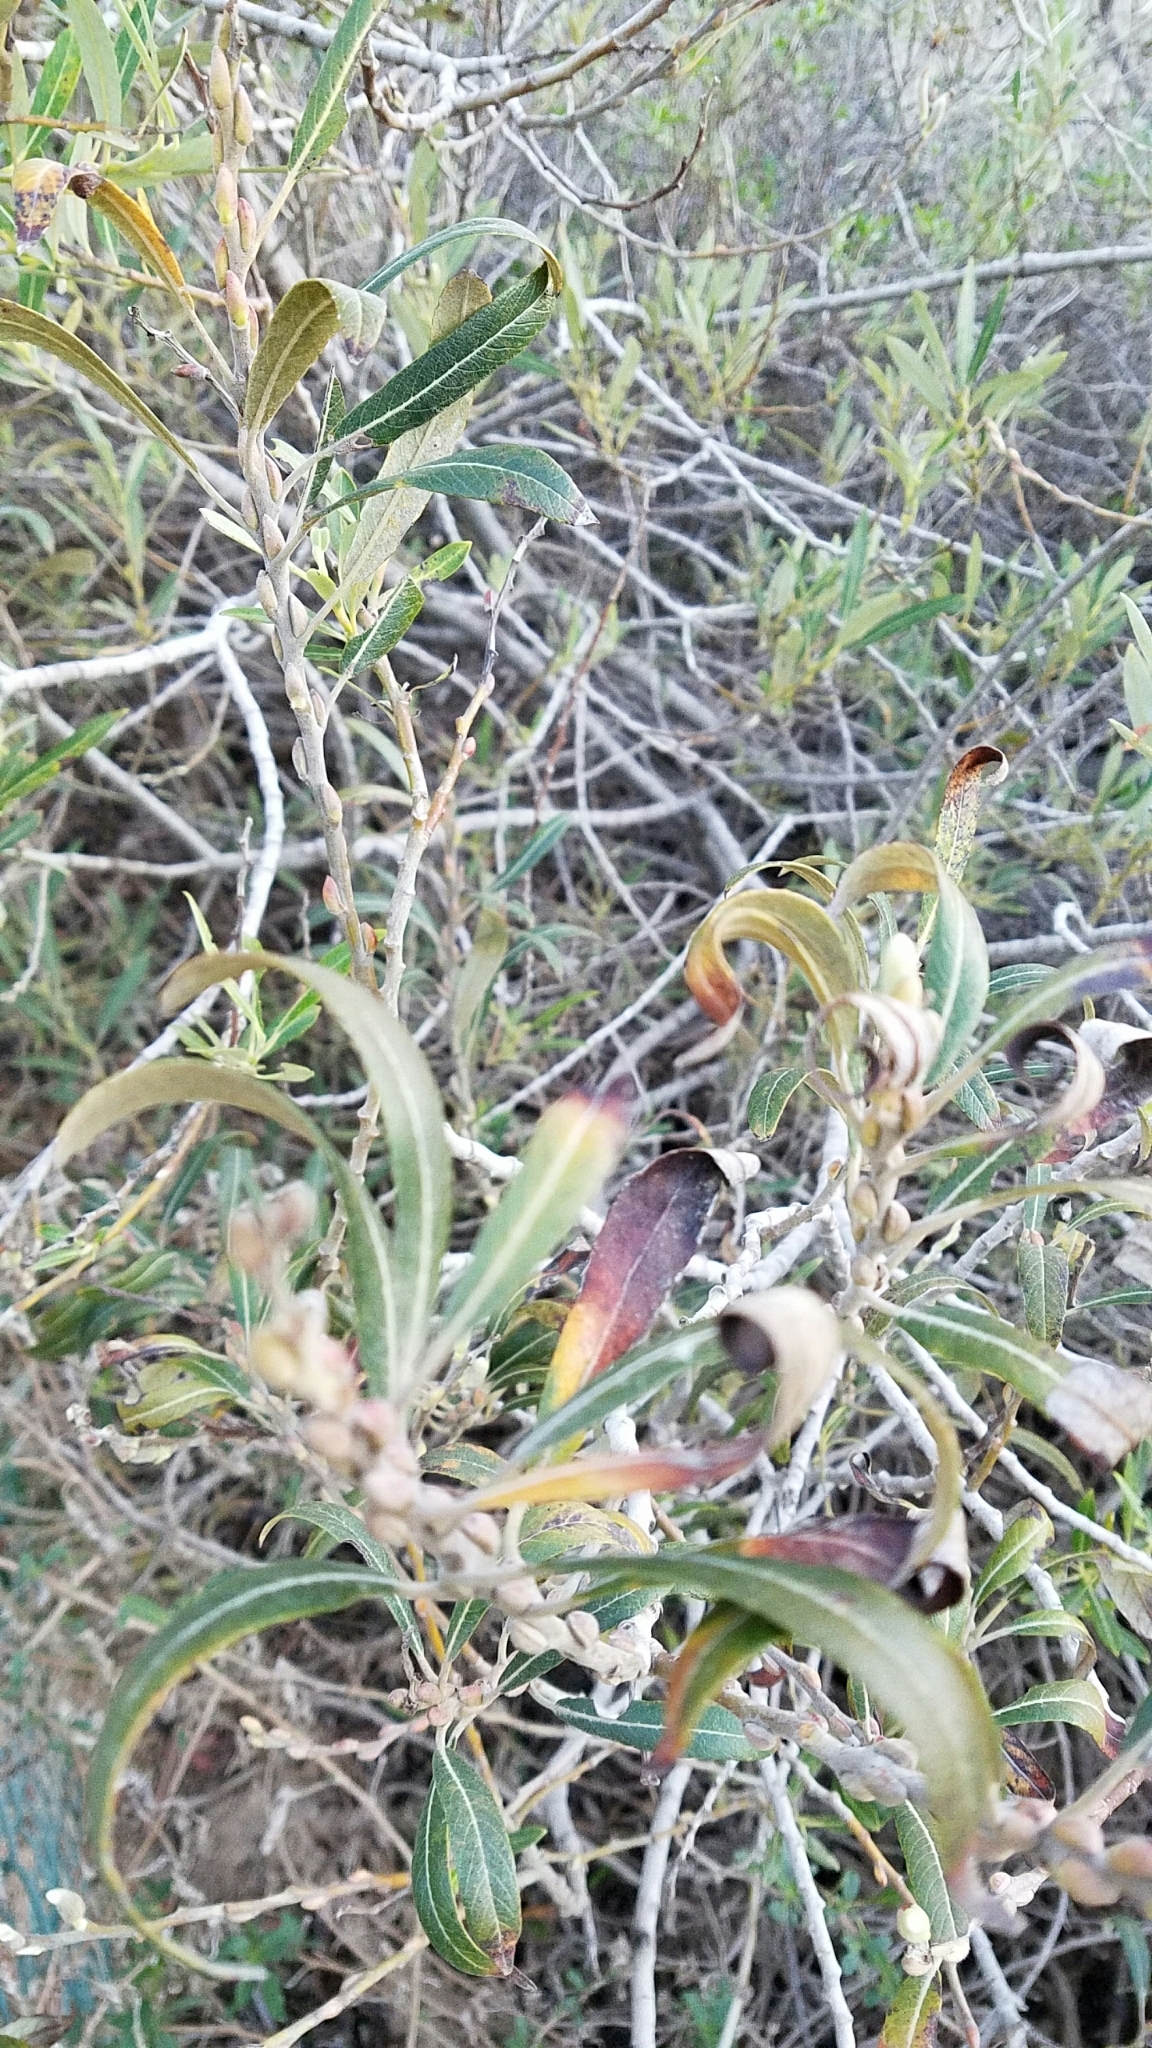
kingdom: Plantae
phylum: Tracheophyta
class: Magnoliopsida
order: Asterales
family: Asteraceae
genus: Baccharis
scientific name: Baccharis salicifolia
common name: Sticky baccharis
